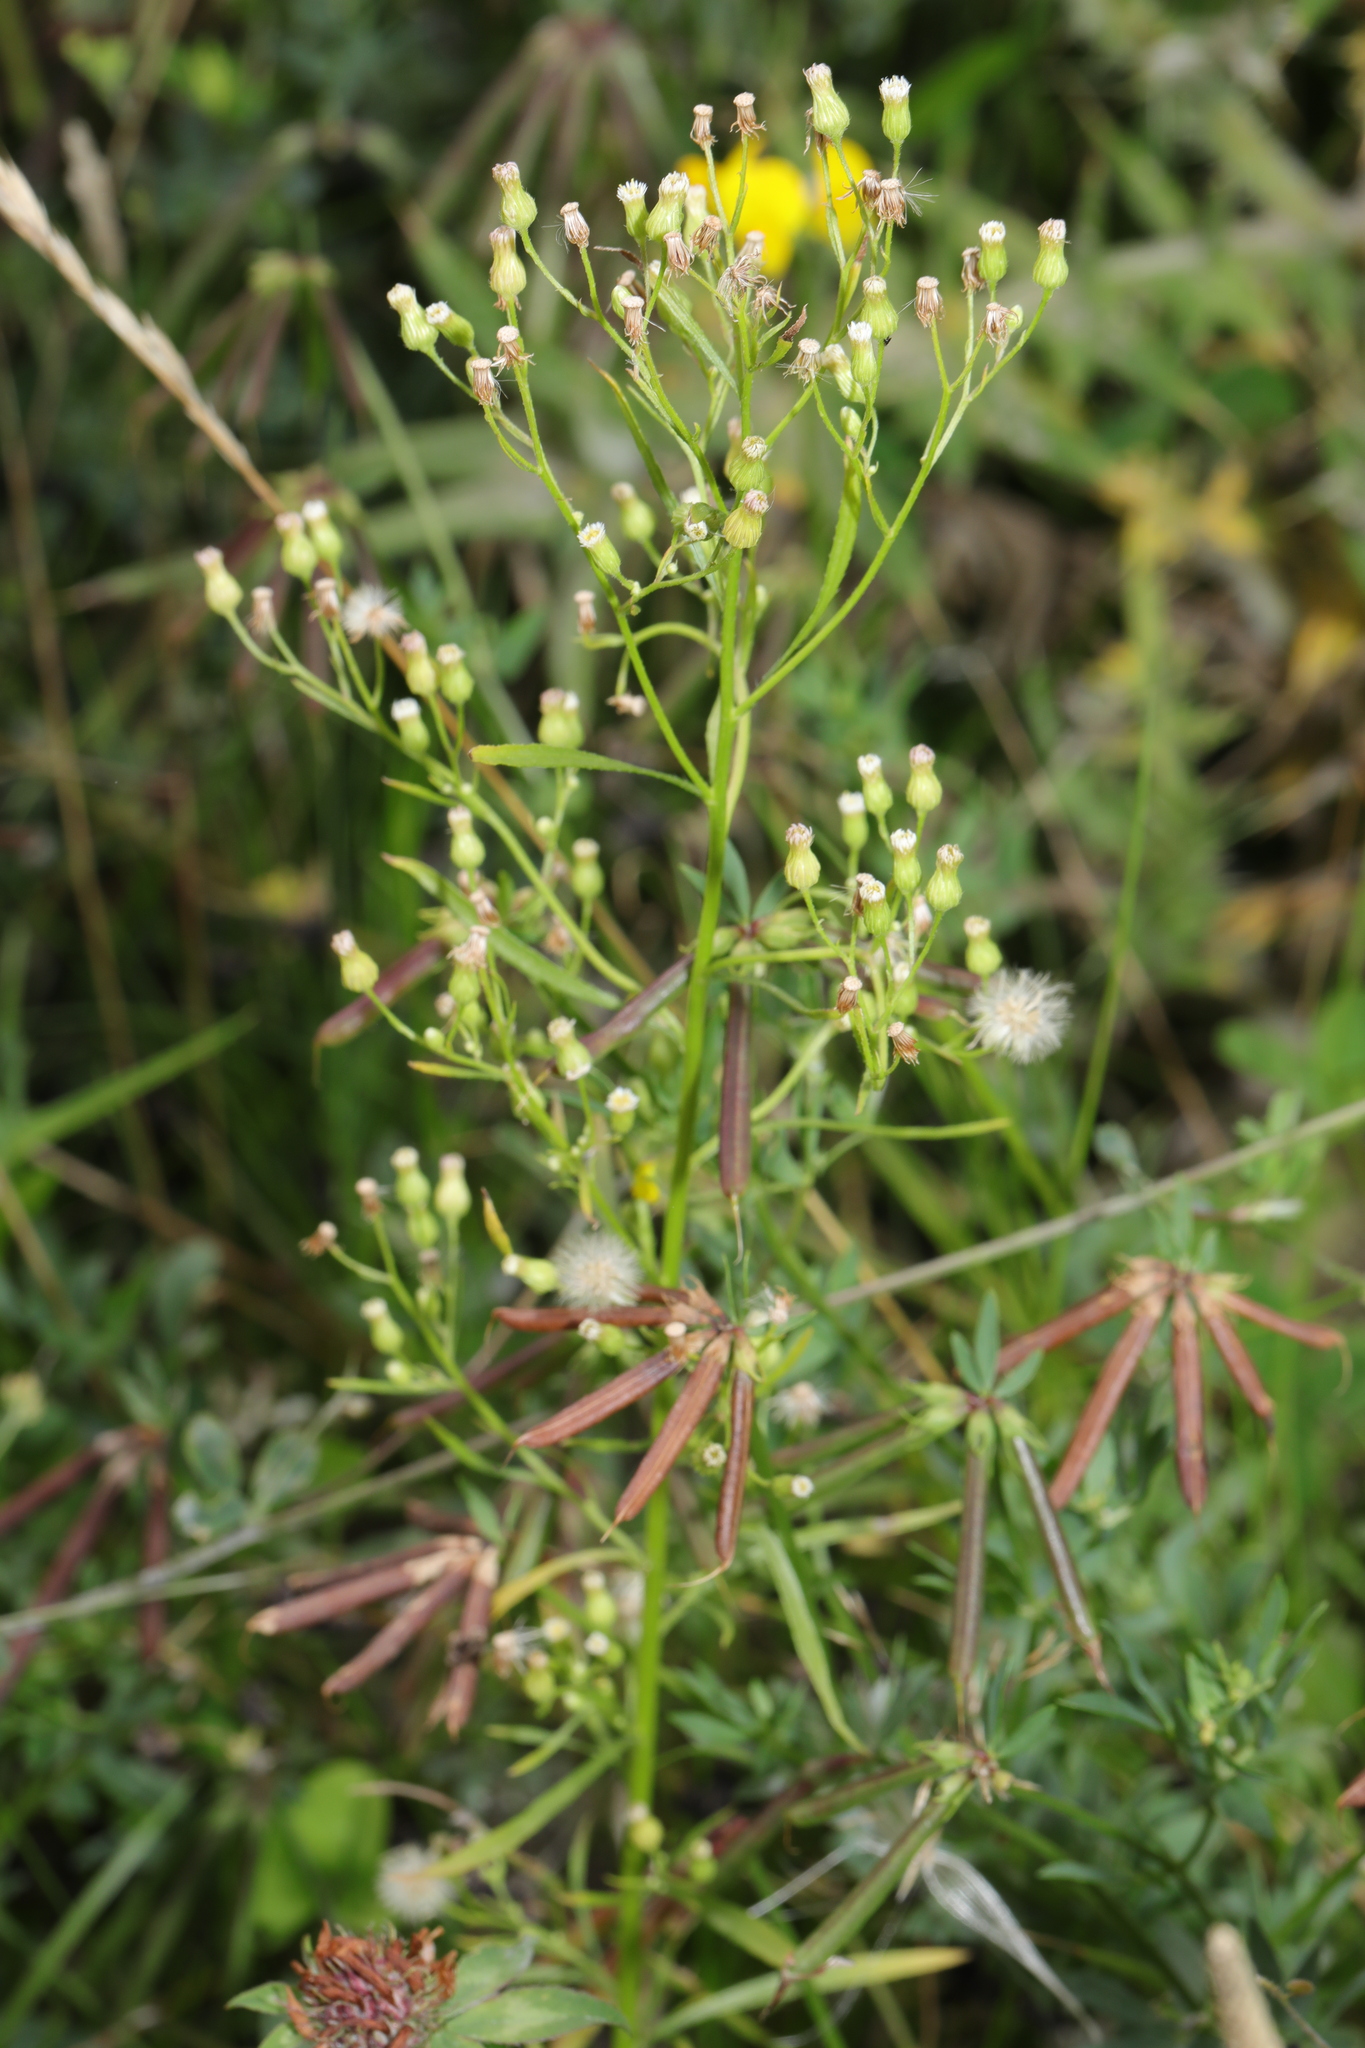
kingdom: Plantae
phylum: Tracheophyta
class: Magnoliopsida
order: Asterales
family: Asteraceae
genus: Erigeron
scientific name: Erigeron canadensis
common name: Canadian fleabane
